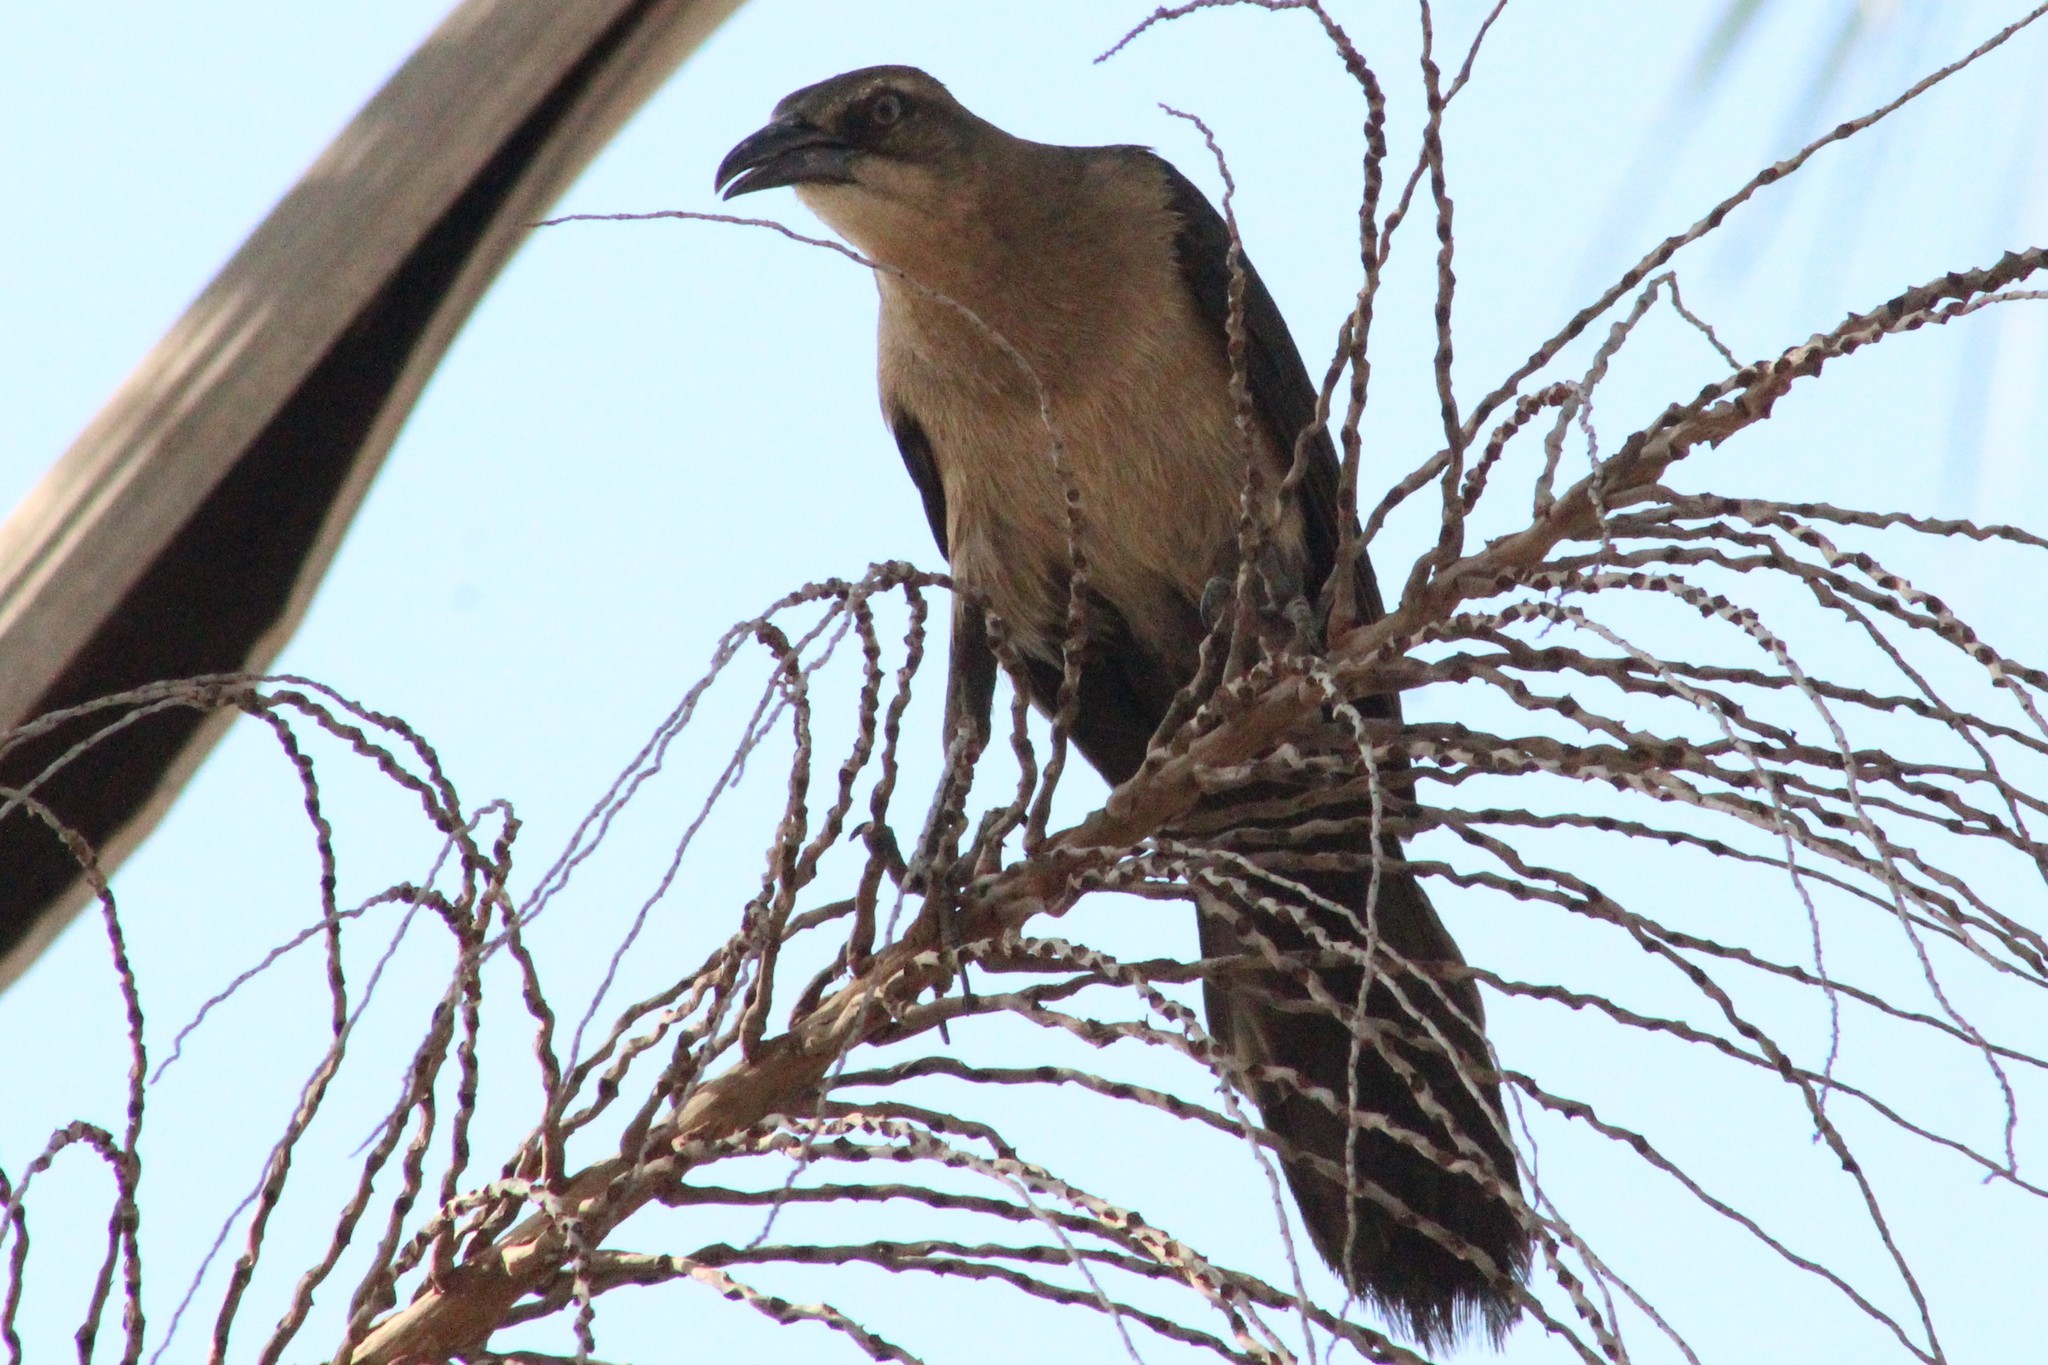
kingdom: Animalia
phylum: Chordata
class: Aves
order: Passeriformes
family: Icteridae
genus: Quiscalus
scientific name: Quiscalus mexicanus
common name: Great-tailed grackle
